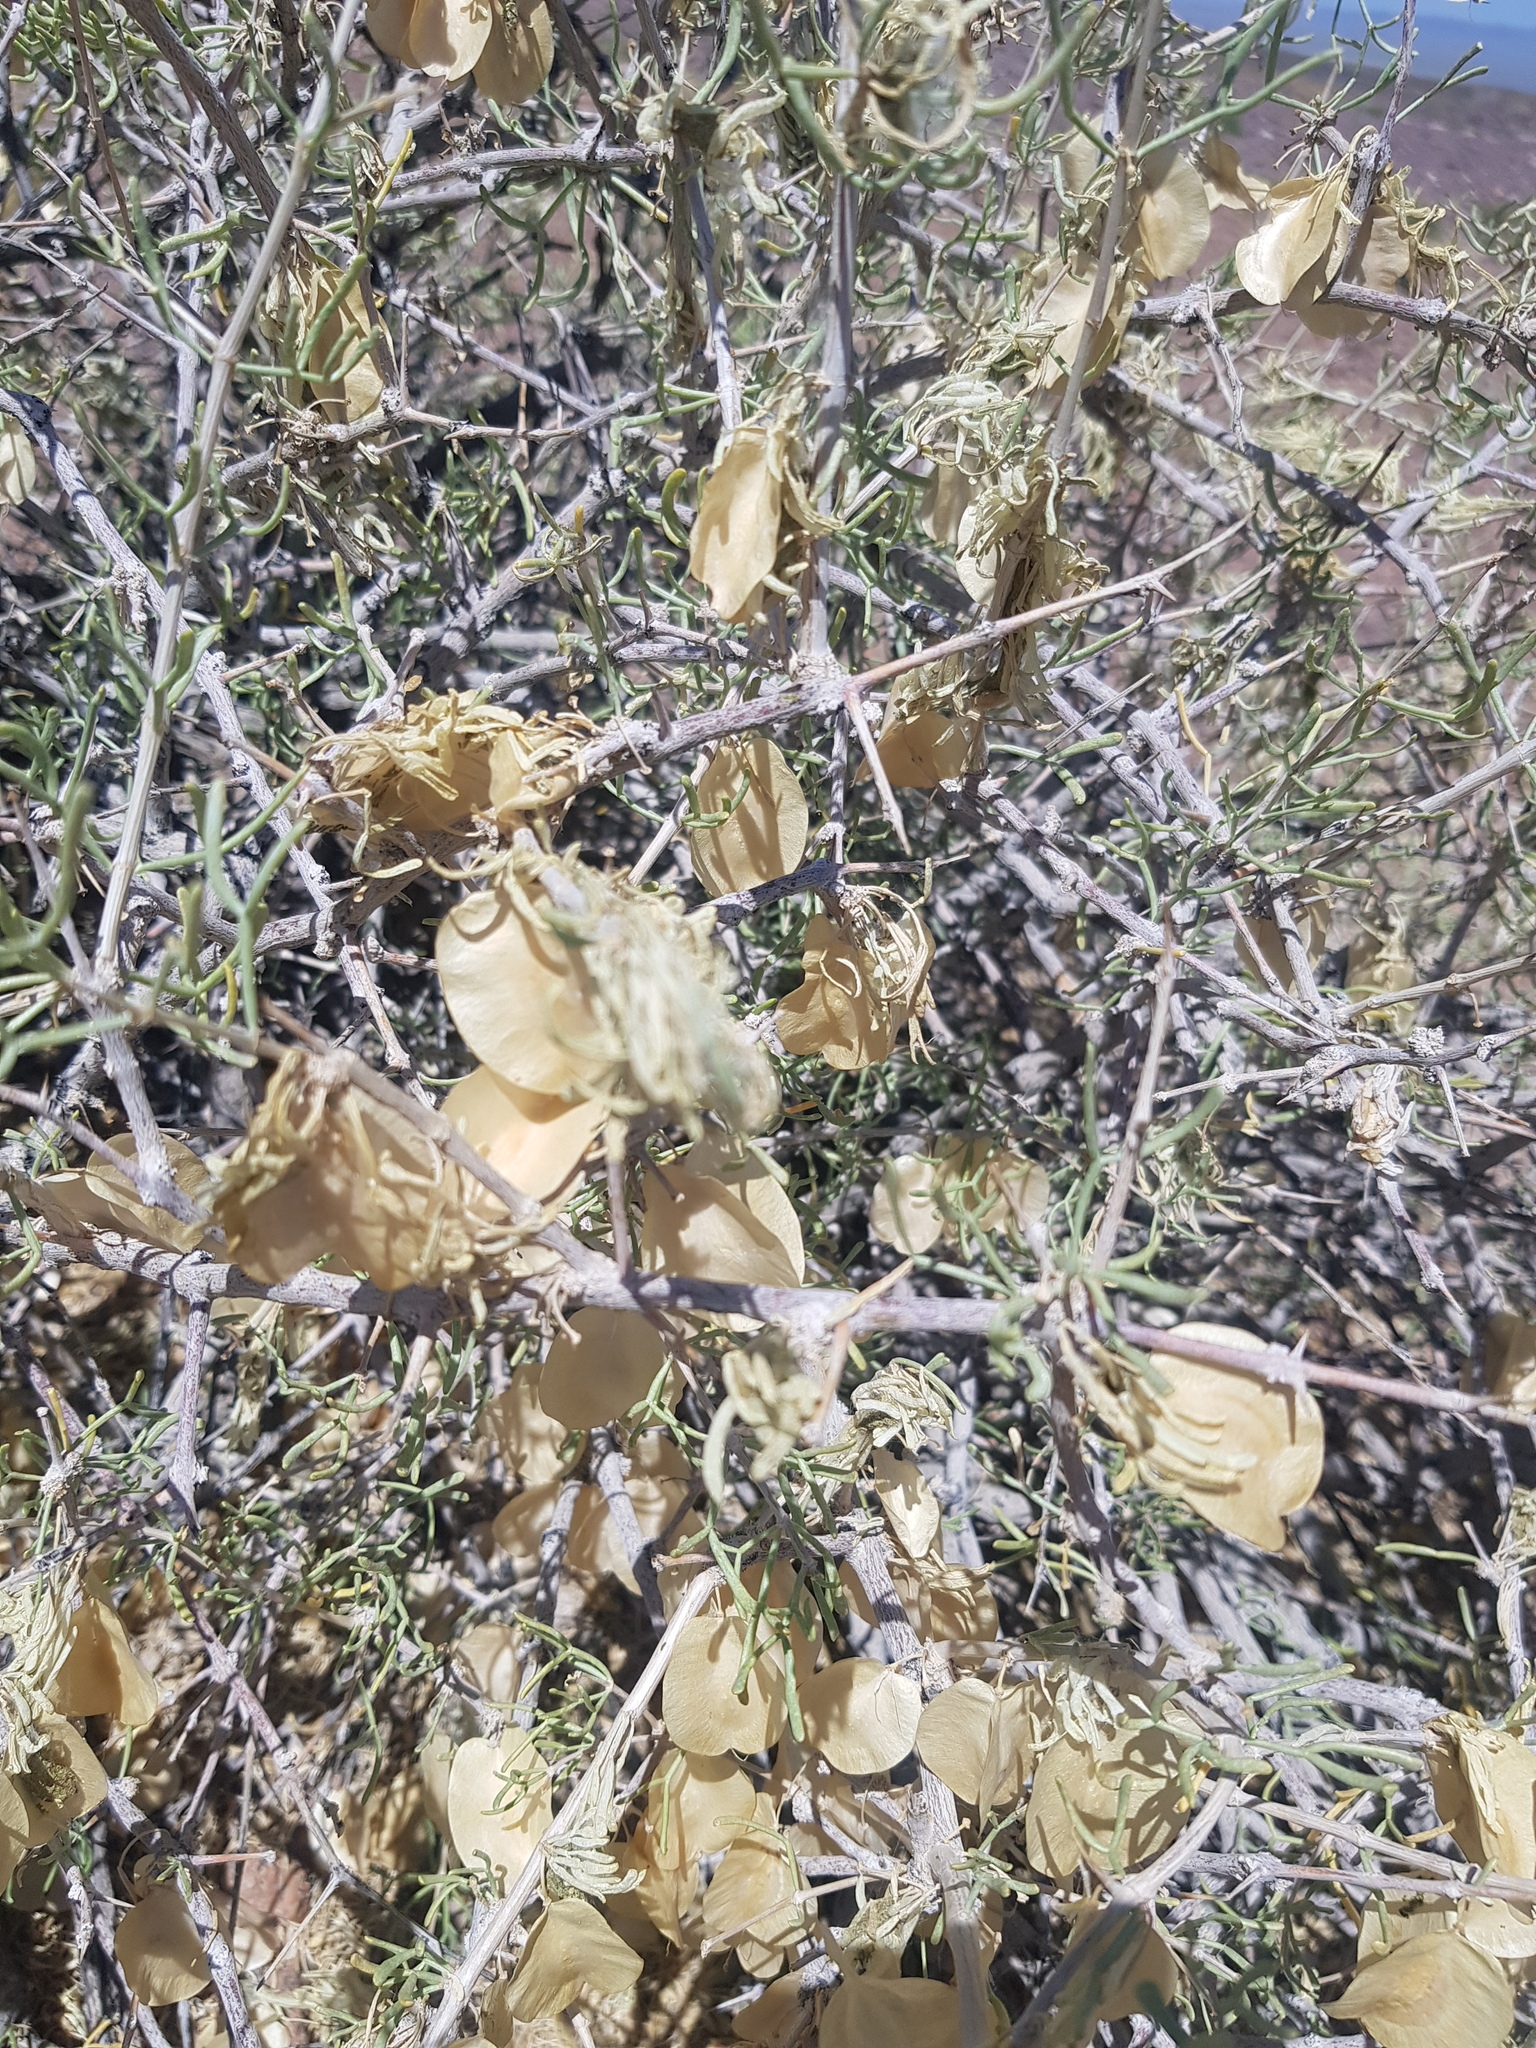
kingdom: Plantae
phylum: Tracheophyta
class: Magnoliopsida
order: Zygophyllales
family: Zygophyllaceae
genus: Zygophyllum
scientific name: Zygophyllum xanthoxylum
